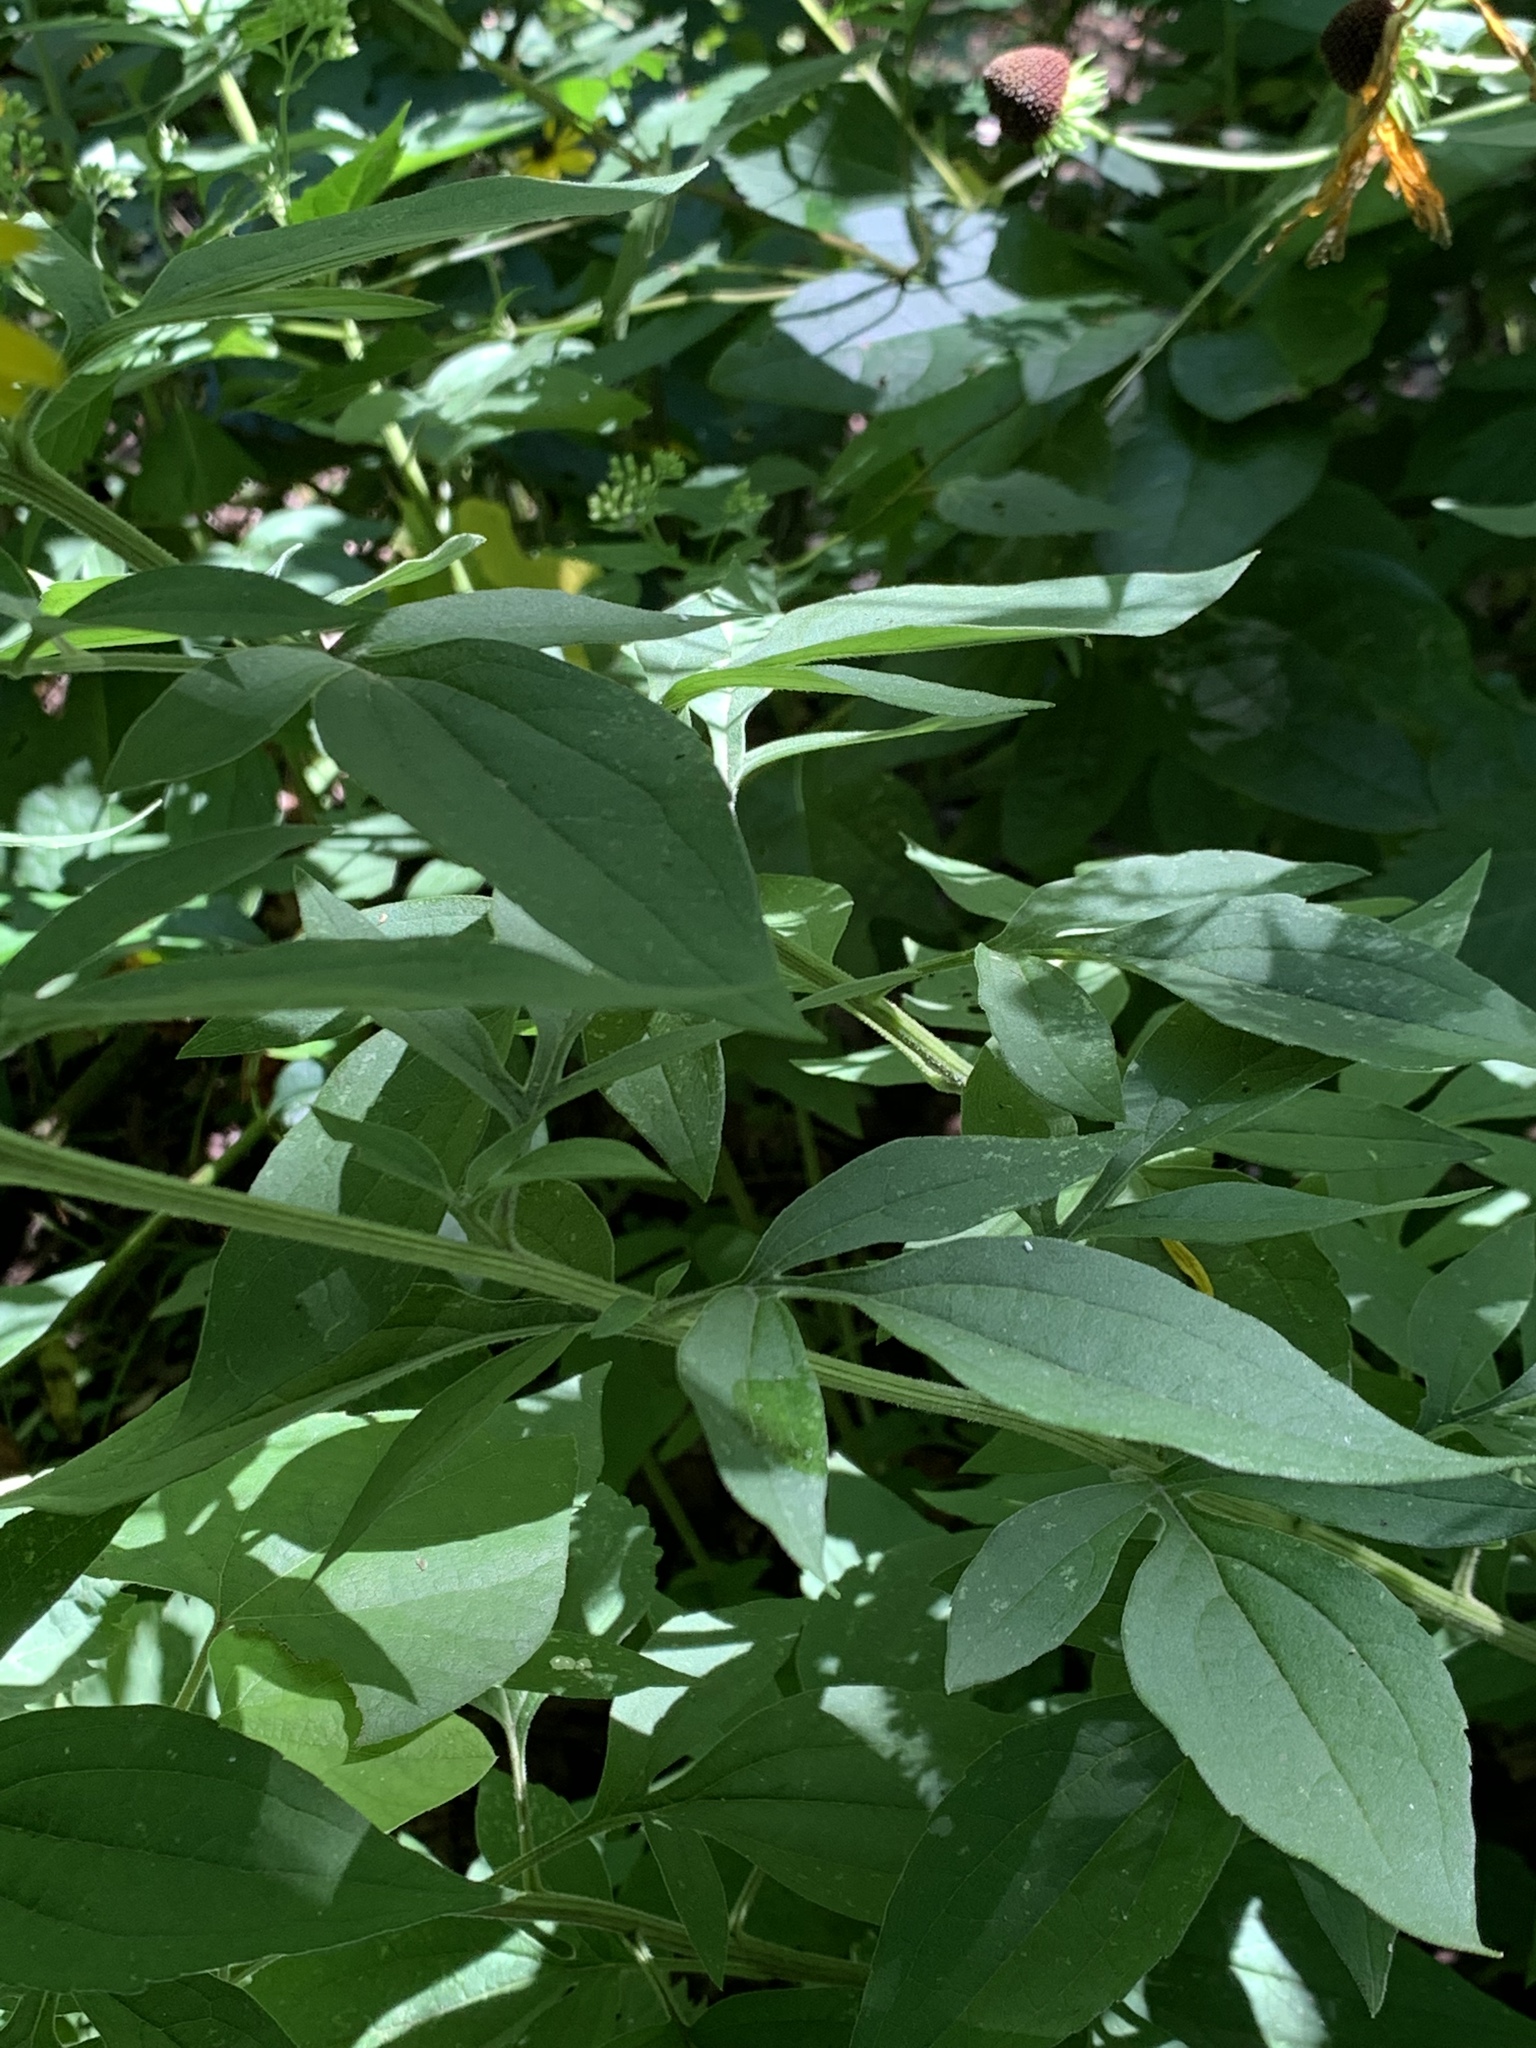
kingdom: Plantae
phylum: Tracheophyta
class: Magnoliopsida
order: Asterales
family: Asteraceae
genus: Rudbeckia
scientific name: Rudbeckia laciniata
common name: Coneflower
